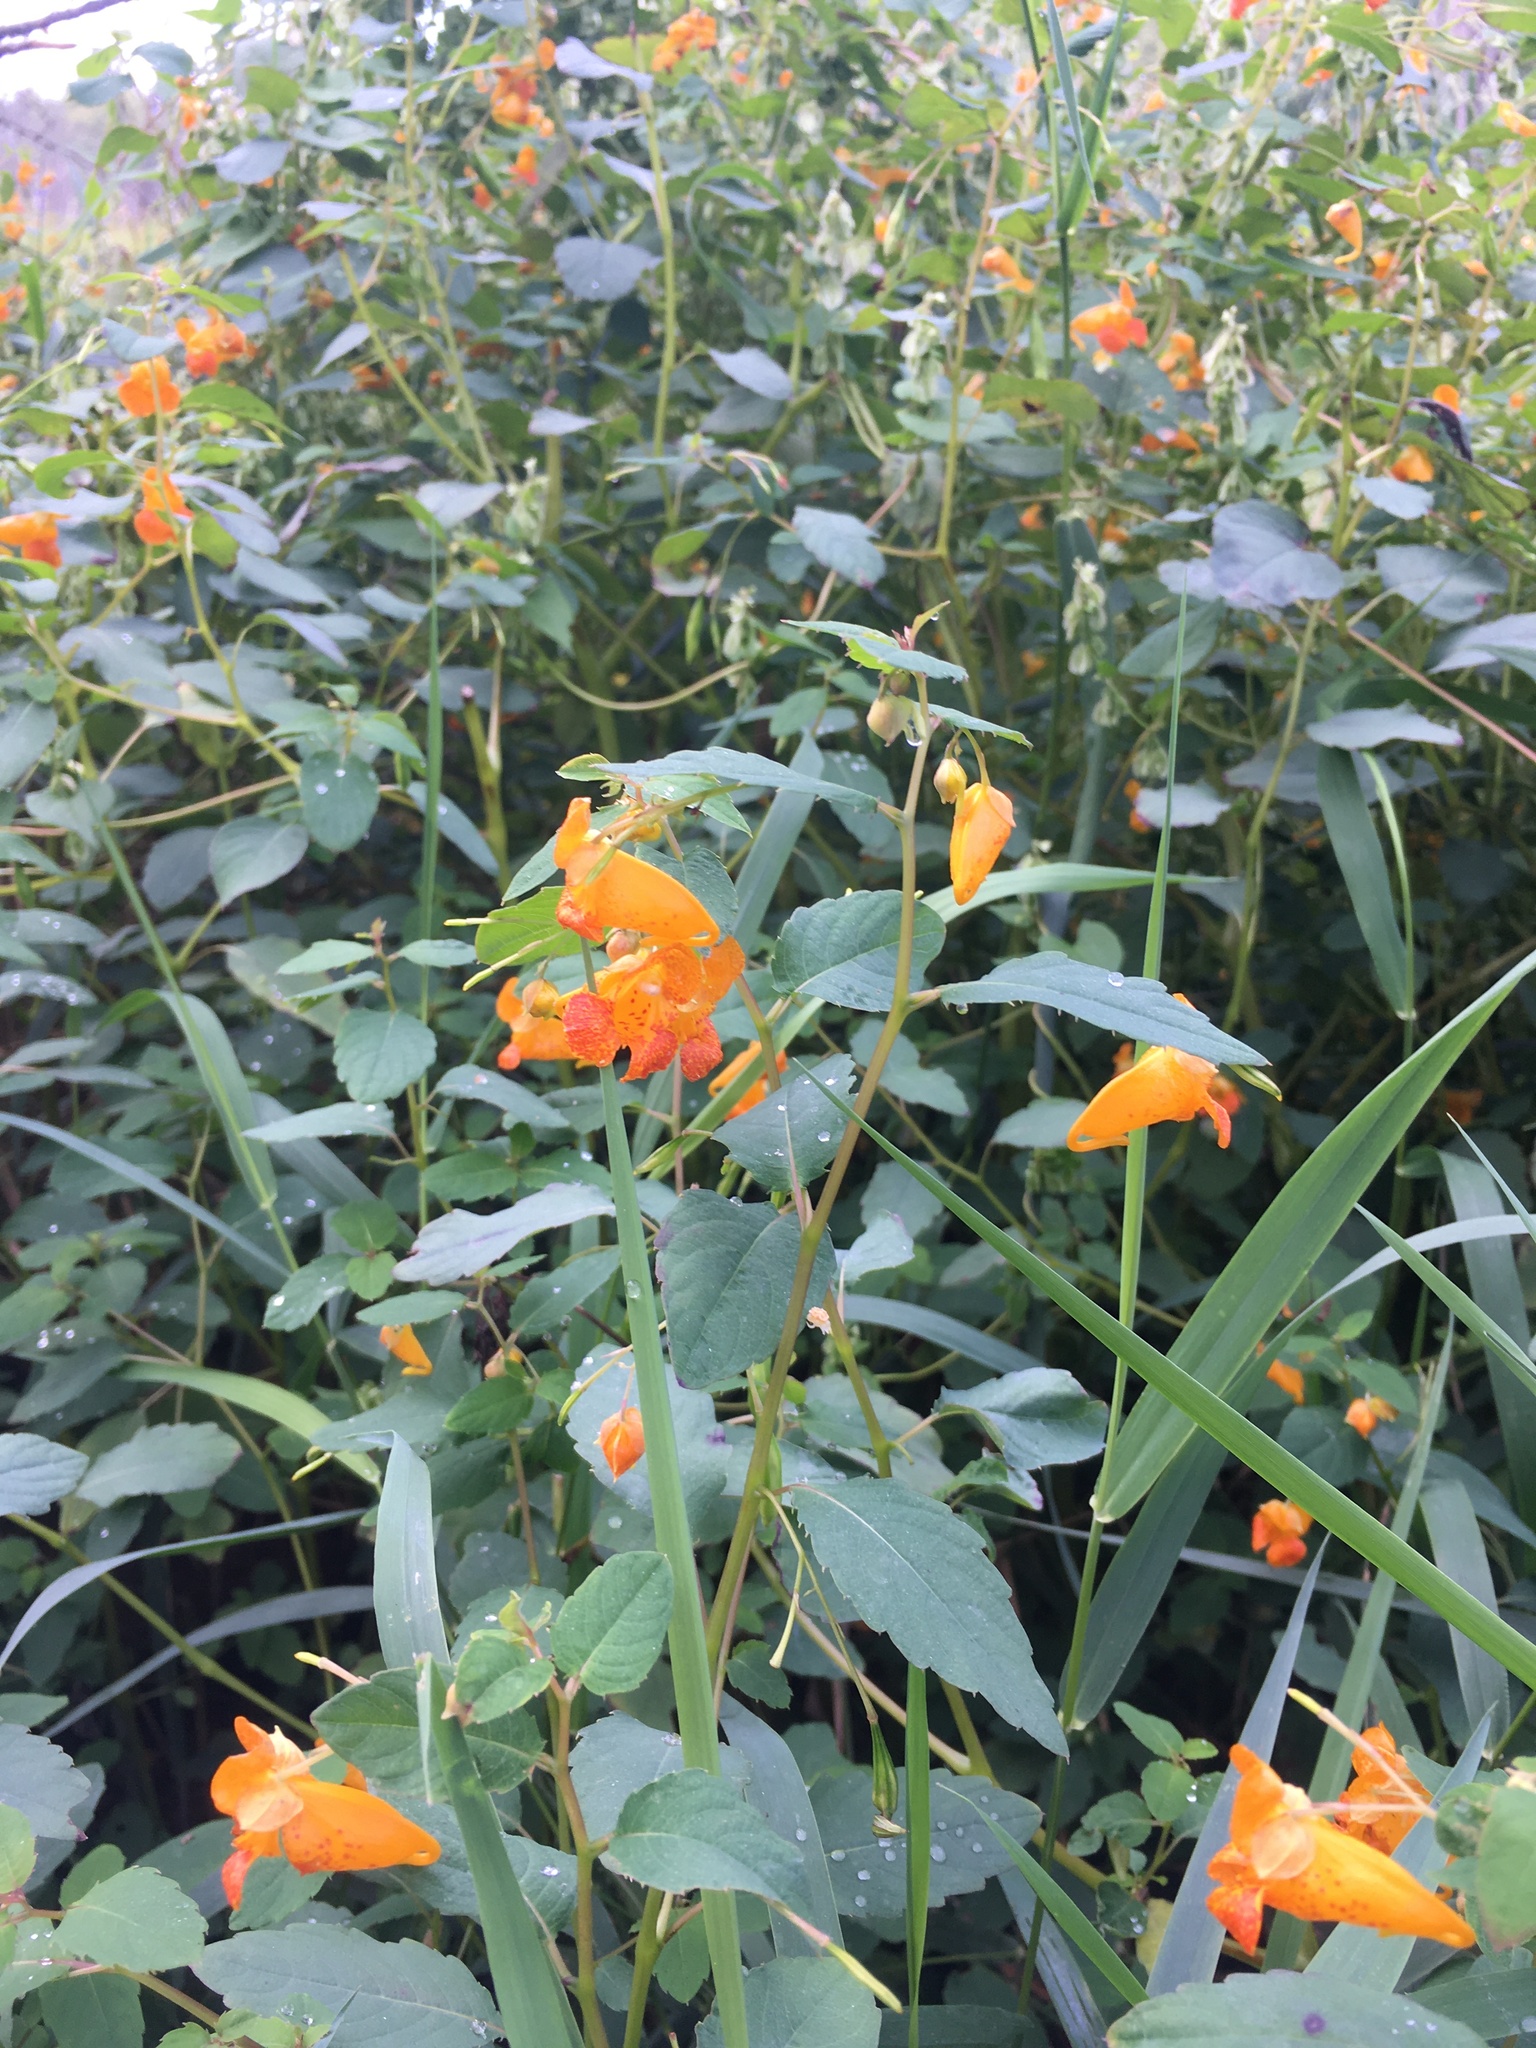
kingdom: Plantae
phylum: Tracheophyta
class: Magnoliopsida
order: Ericales
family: Balsaminaceae
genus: Impatiens
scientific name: Impatiens capensis
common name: Orange balsam
